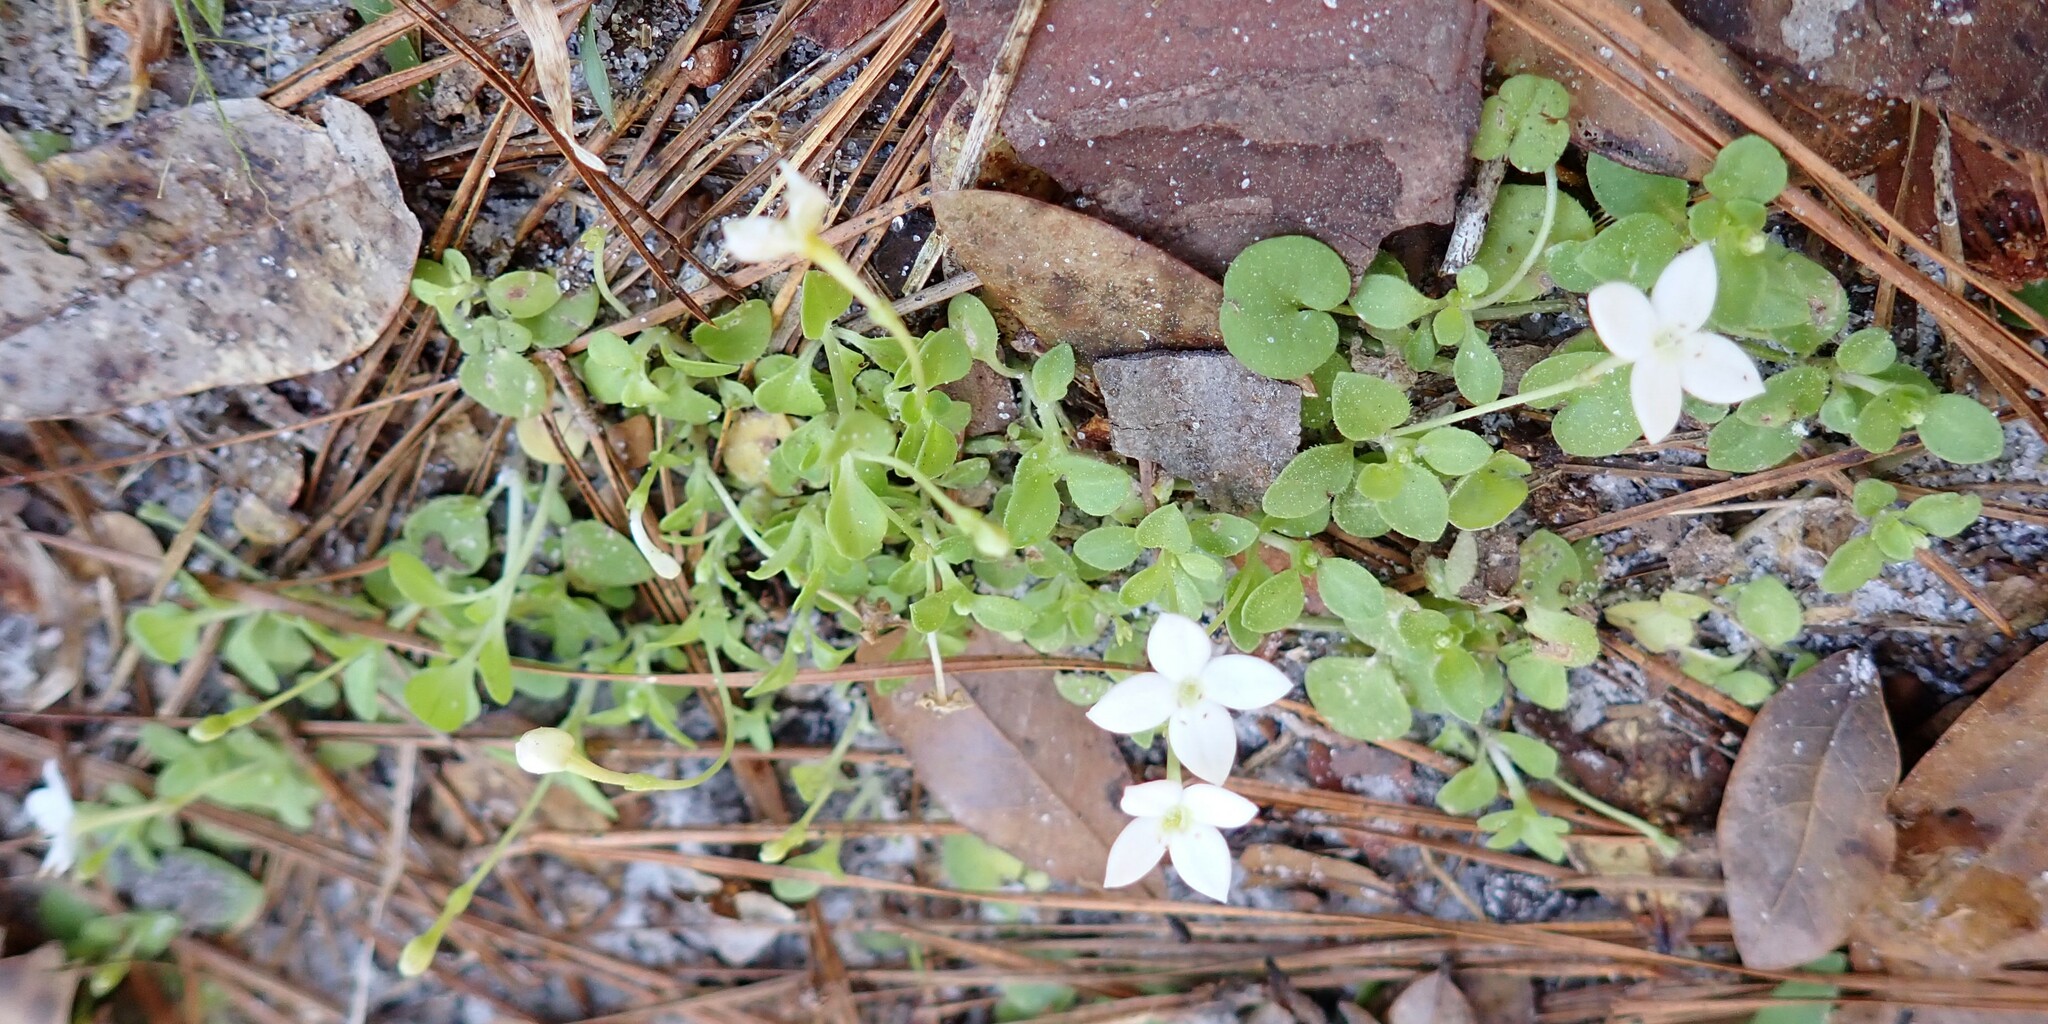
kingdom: Plantae
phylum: Tracheophyta
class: Magnoliopsida
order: Gentianales
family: Rubiaceae
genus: Houstonia
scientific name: Houstonia procumbens
